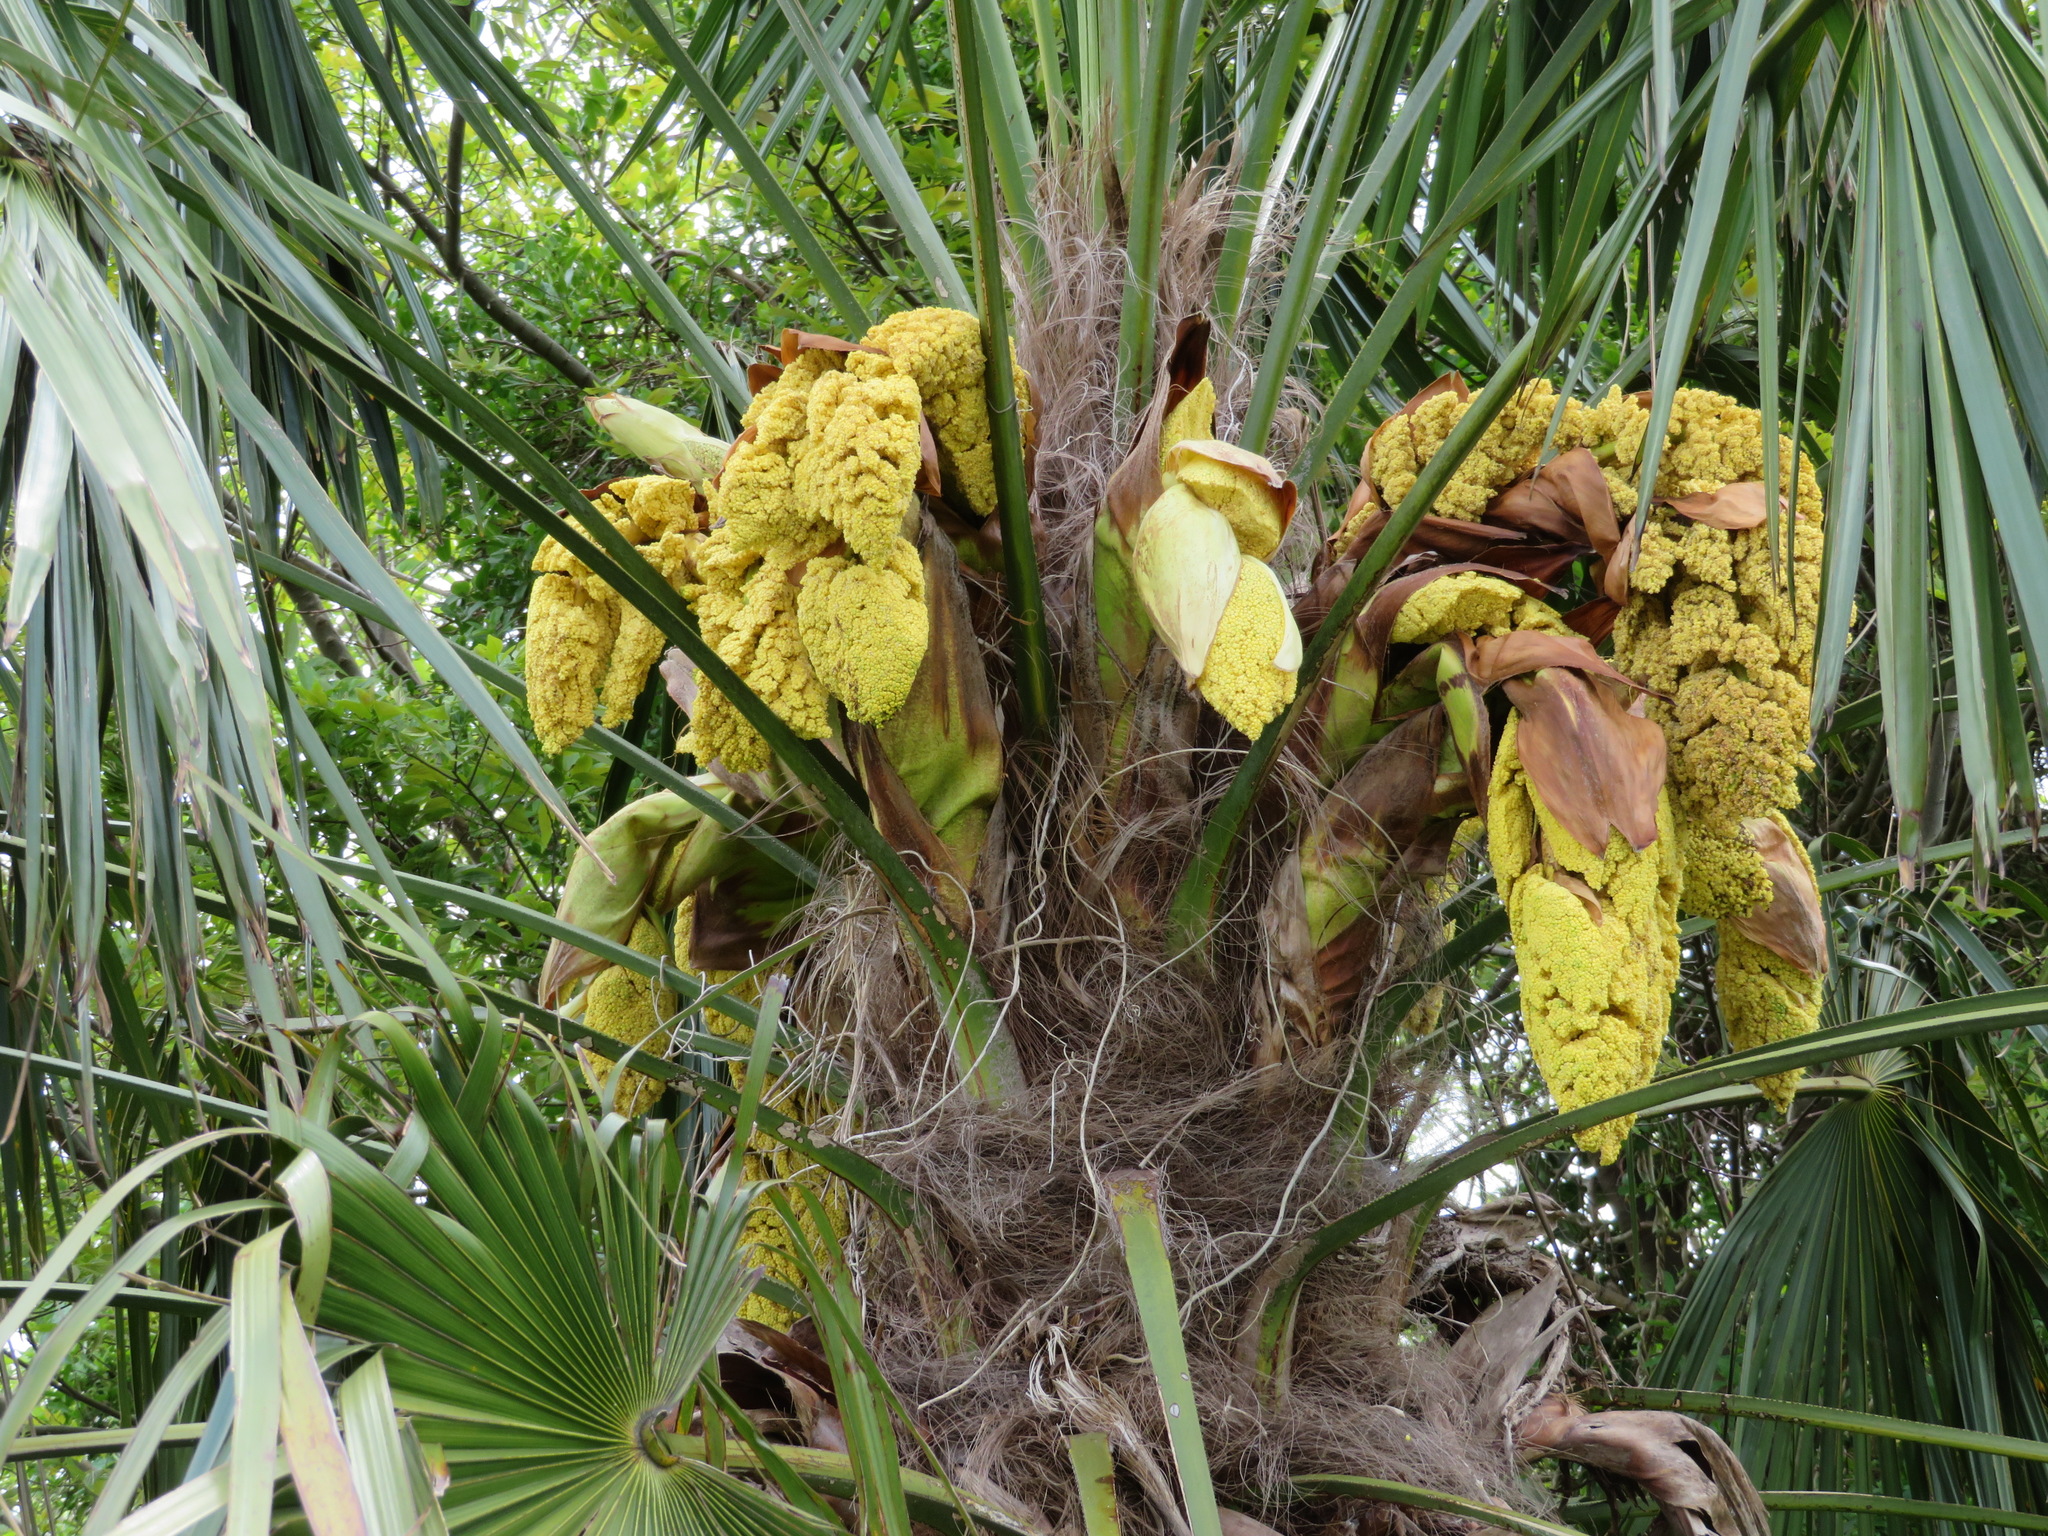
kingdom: Plantae
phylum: Tracheophyta
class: Liliopsida
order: Arecales
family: Arecaceae
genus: Trachycarpus
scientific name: Trachycarpus fortunei
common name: Chusan palm
